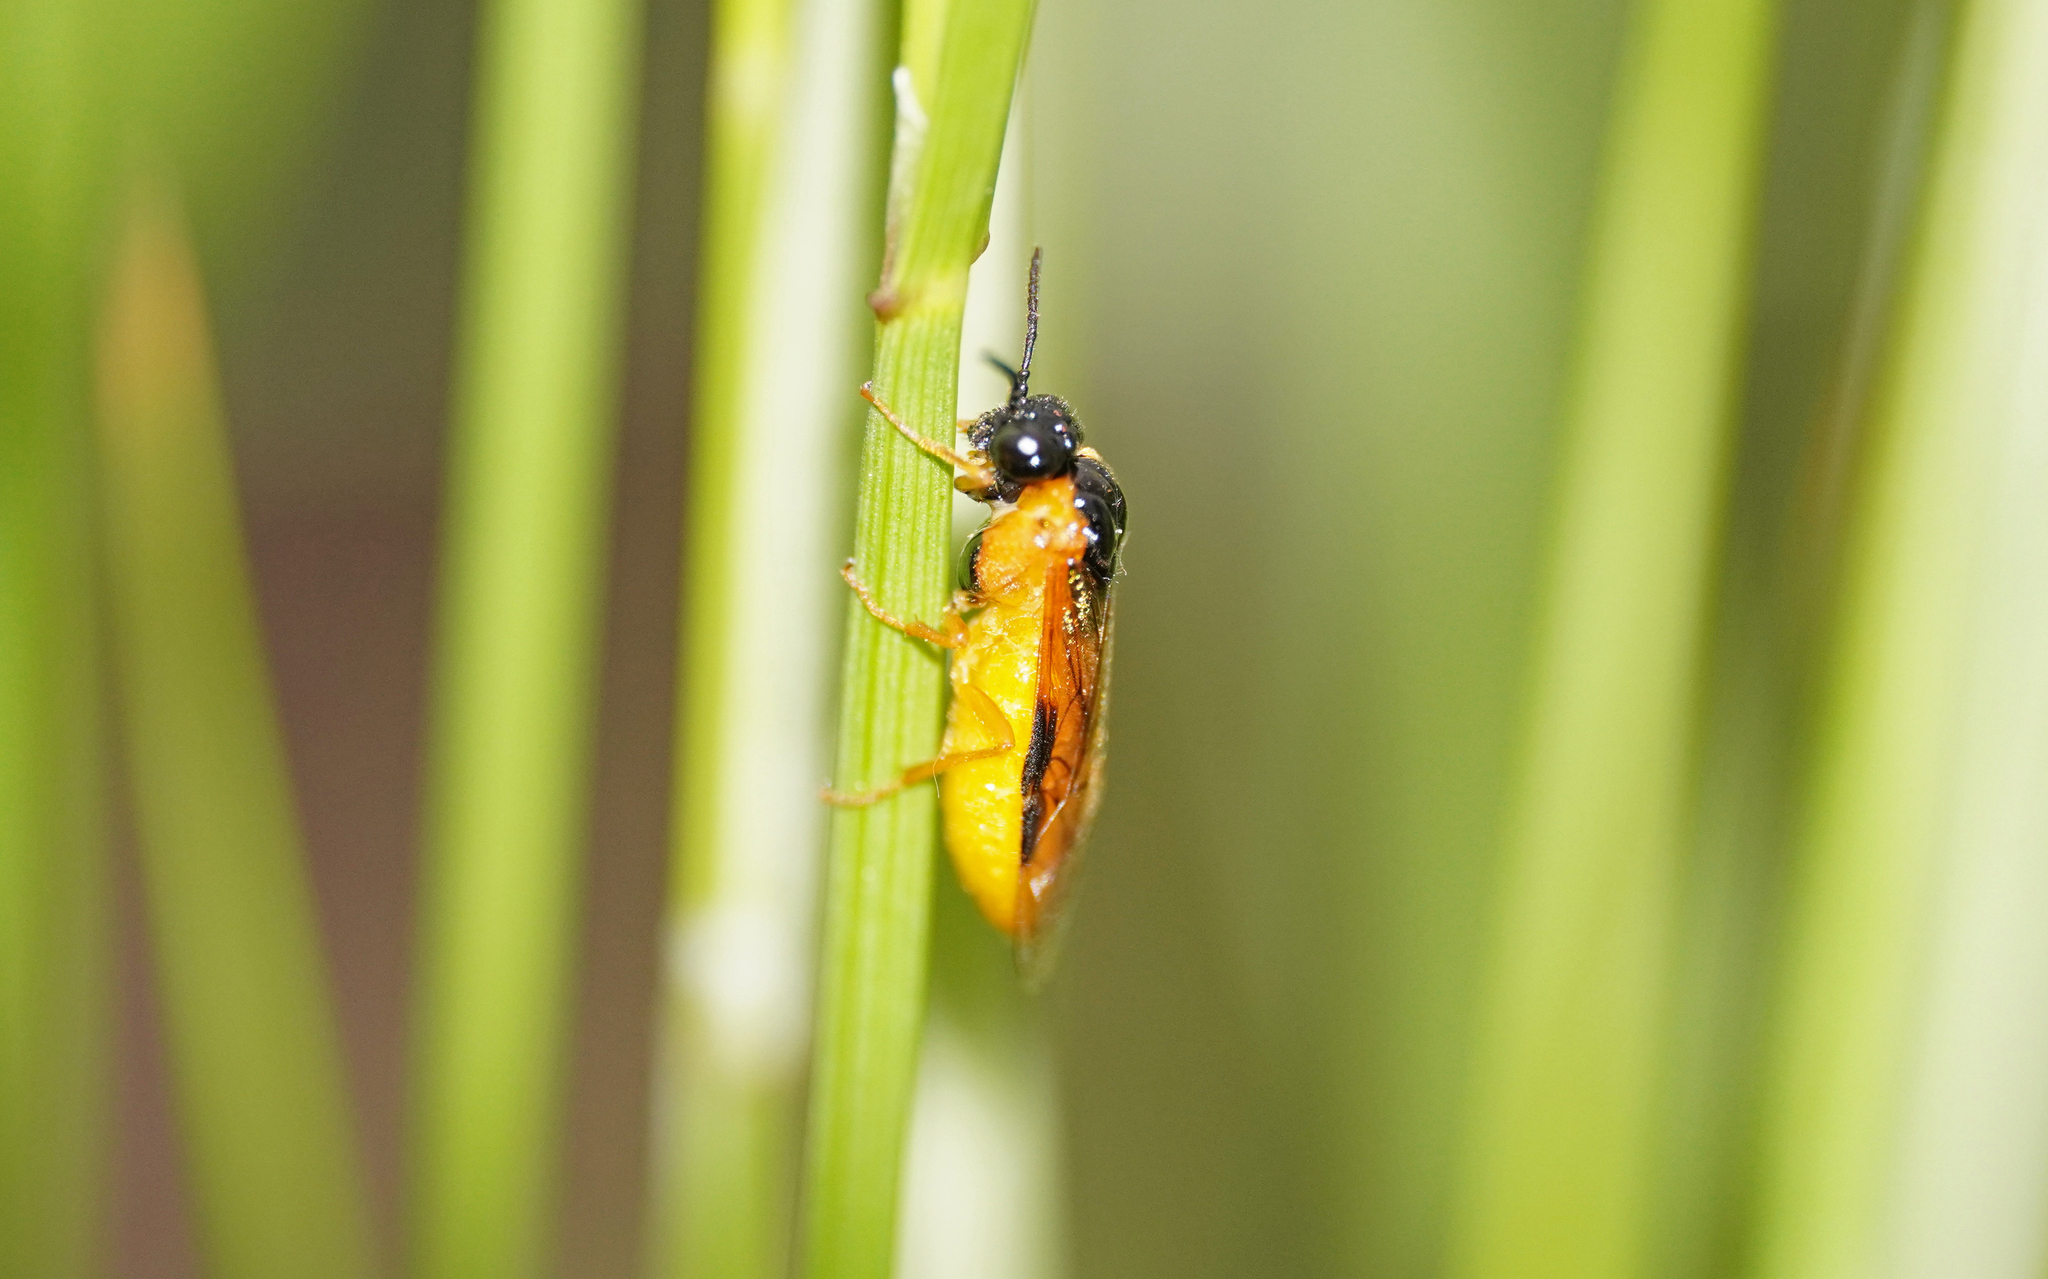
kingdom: Animalia
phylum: Arthropoda
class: Insecta
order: Hymenoptera
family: Tenthredinidae
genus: Selandria
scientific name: Selandria serva
